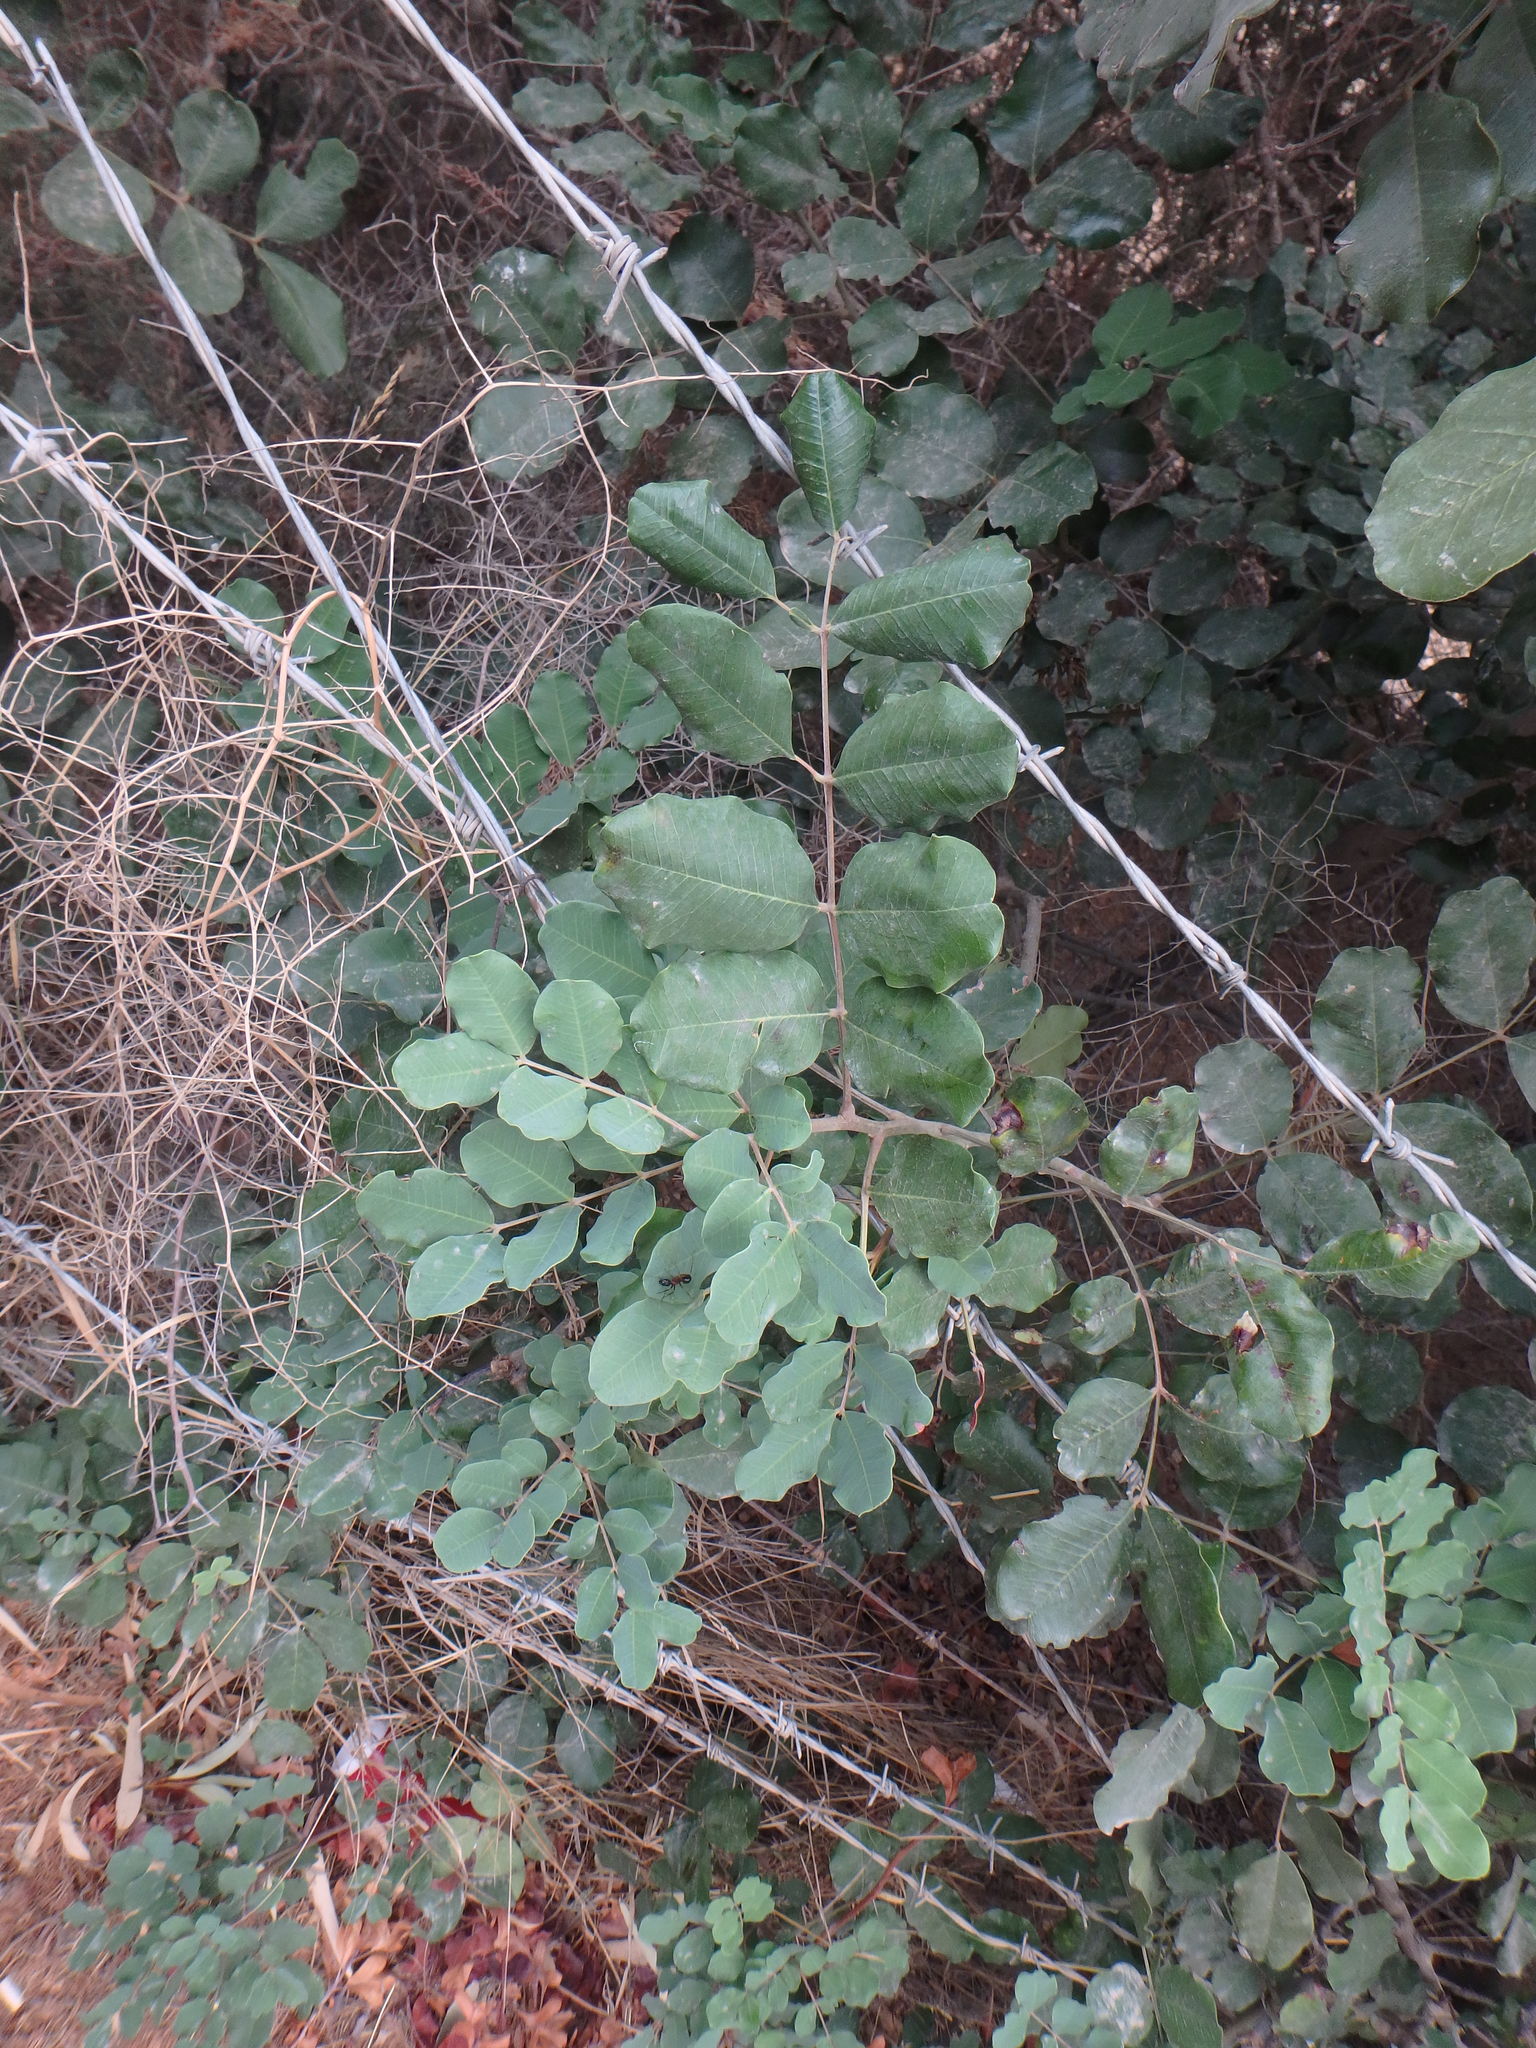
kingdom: Plantae
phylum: Tracheophyta
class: Magnoliopsida
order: Fabales
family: Fabaceae
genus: Ceratonia
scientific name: Ceratonia siliqua
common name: Carob
